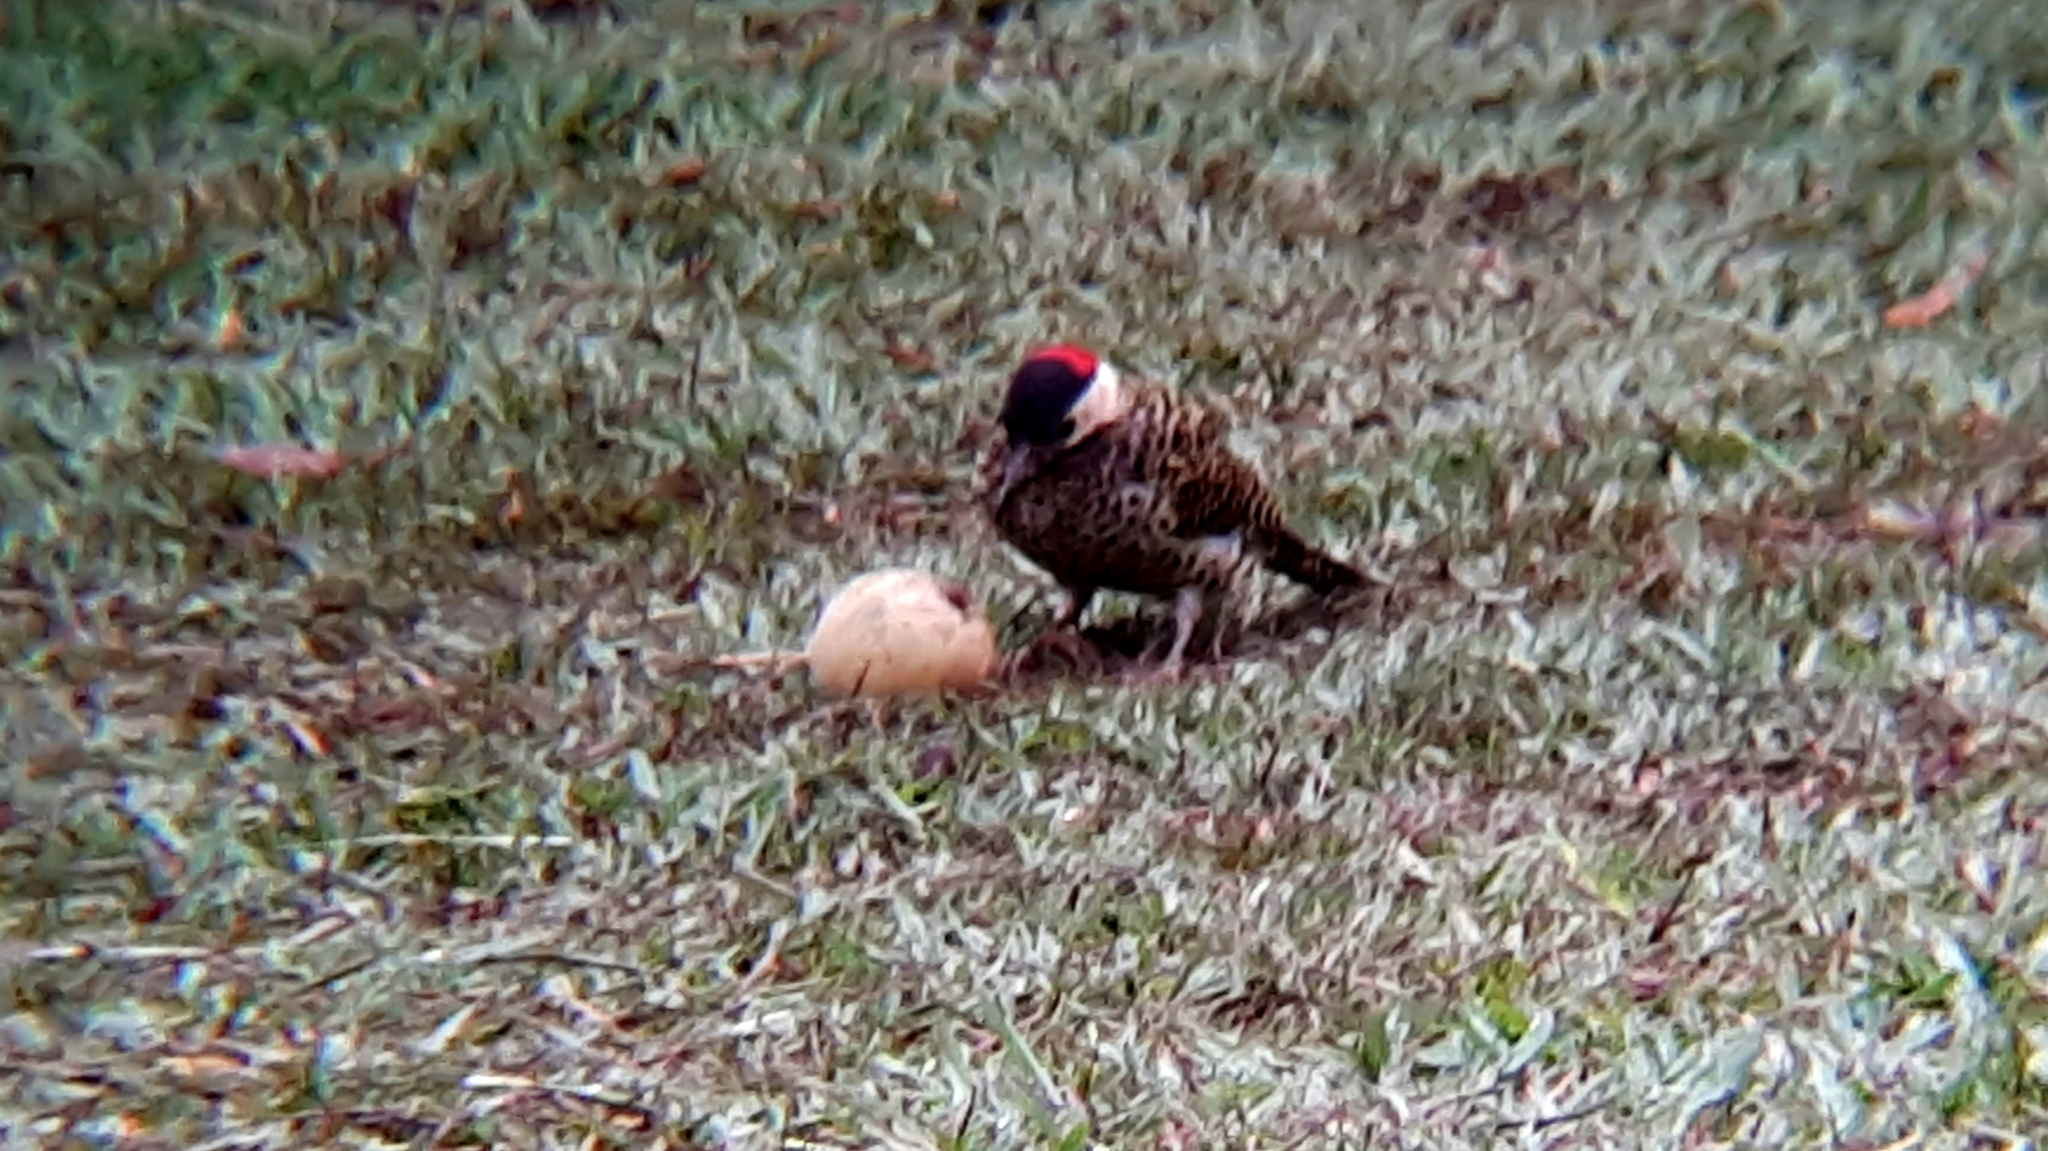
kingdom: Animalia
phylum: Chordata
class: Aves
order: Piciformes
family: Picidae
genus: Colaptes
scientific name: Colaptes melanochloros
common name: Green-barred woodpecker
